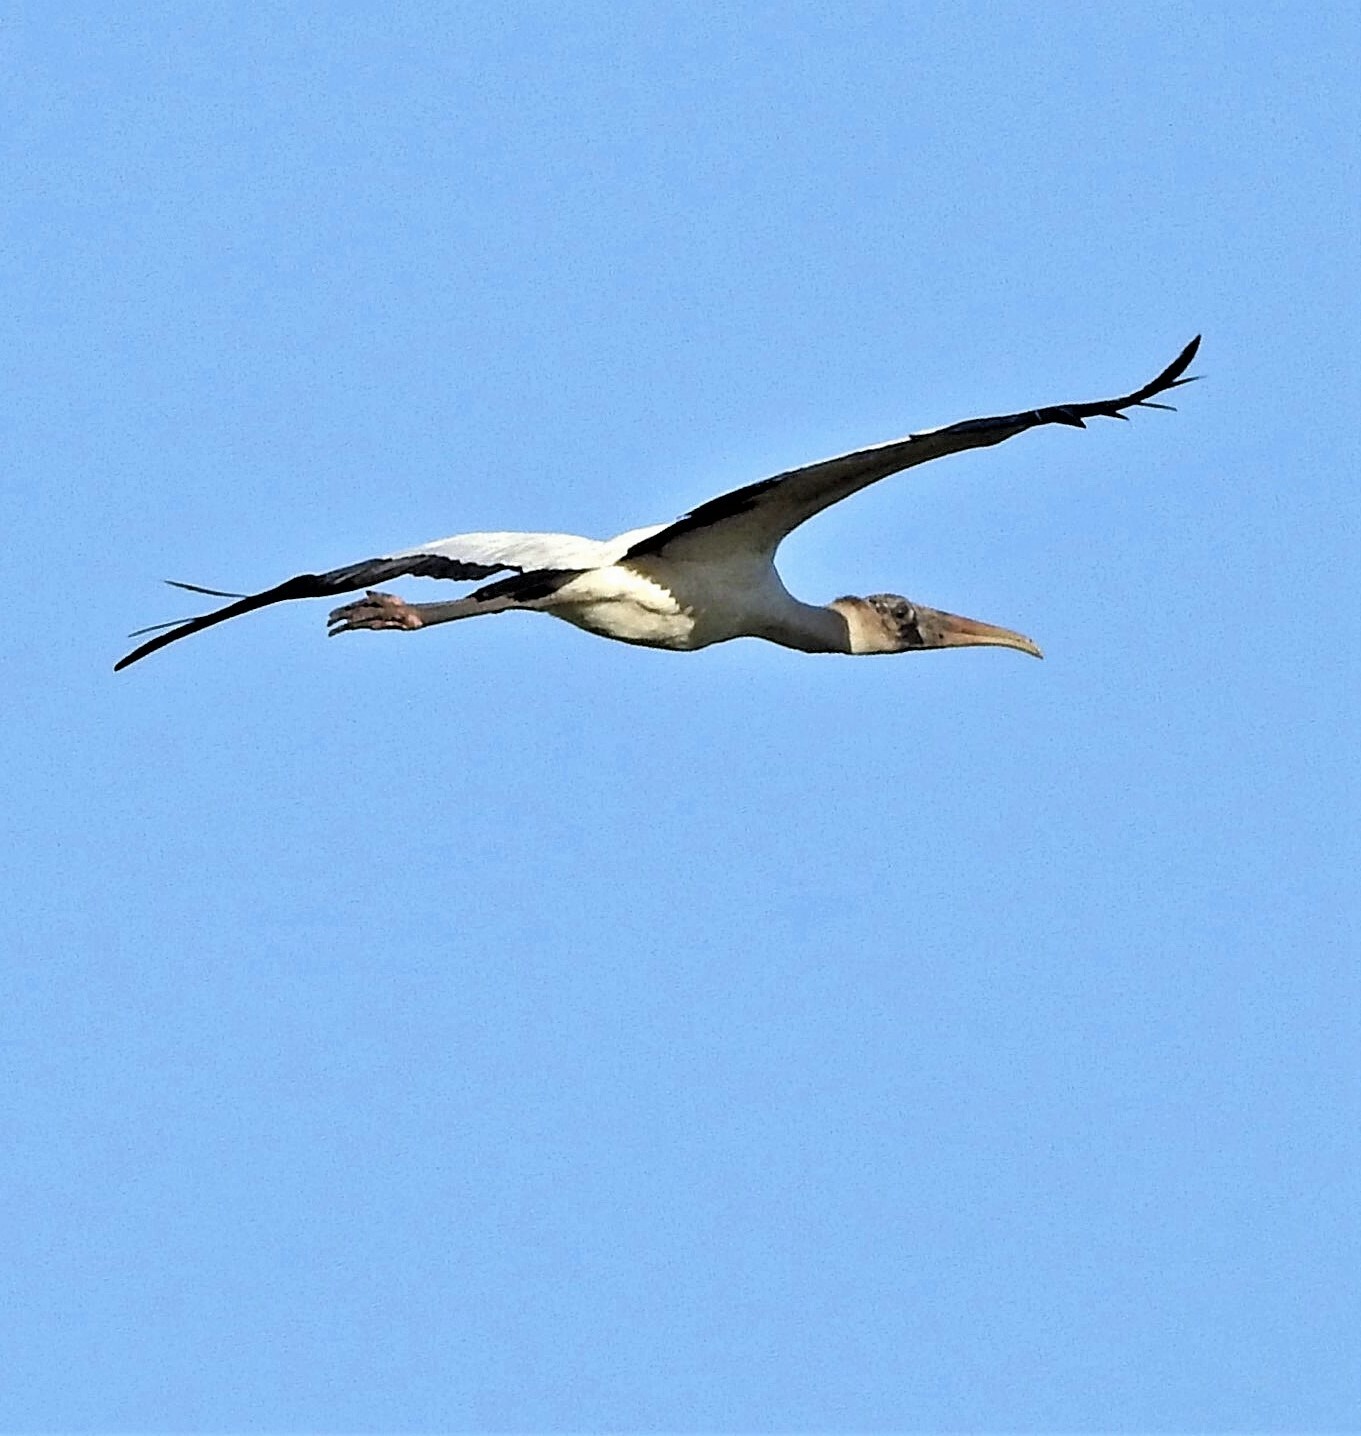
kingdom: Animalia
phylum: Chordata
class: Aves
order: Ciconiiformes
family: Ciconiidae
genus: Mycteria
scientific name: Mycteria americana
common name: Wood stork
